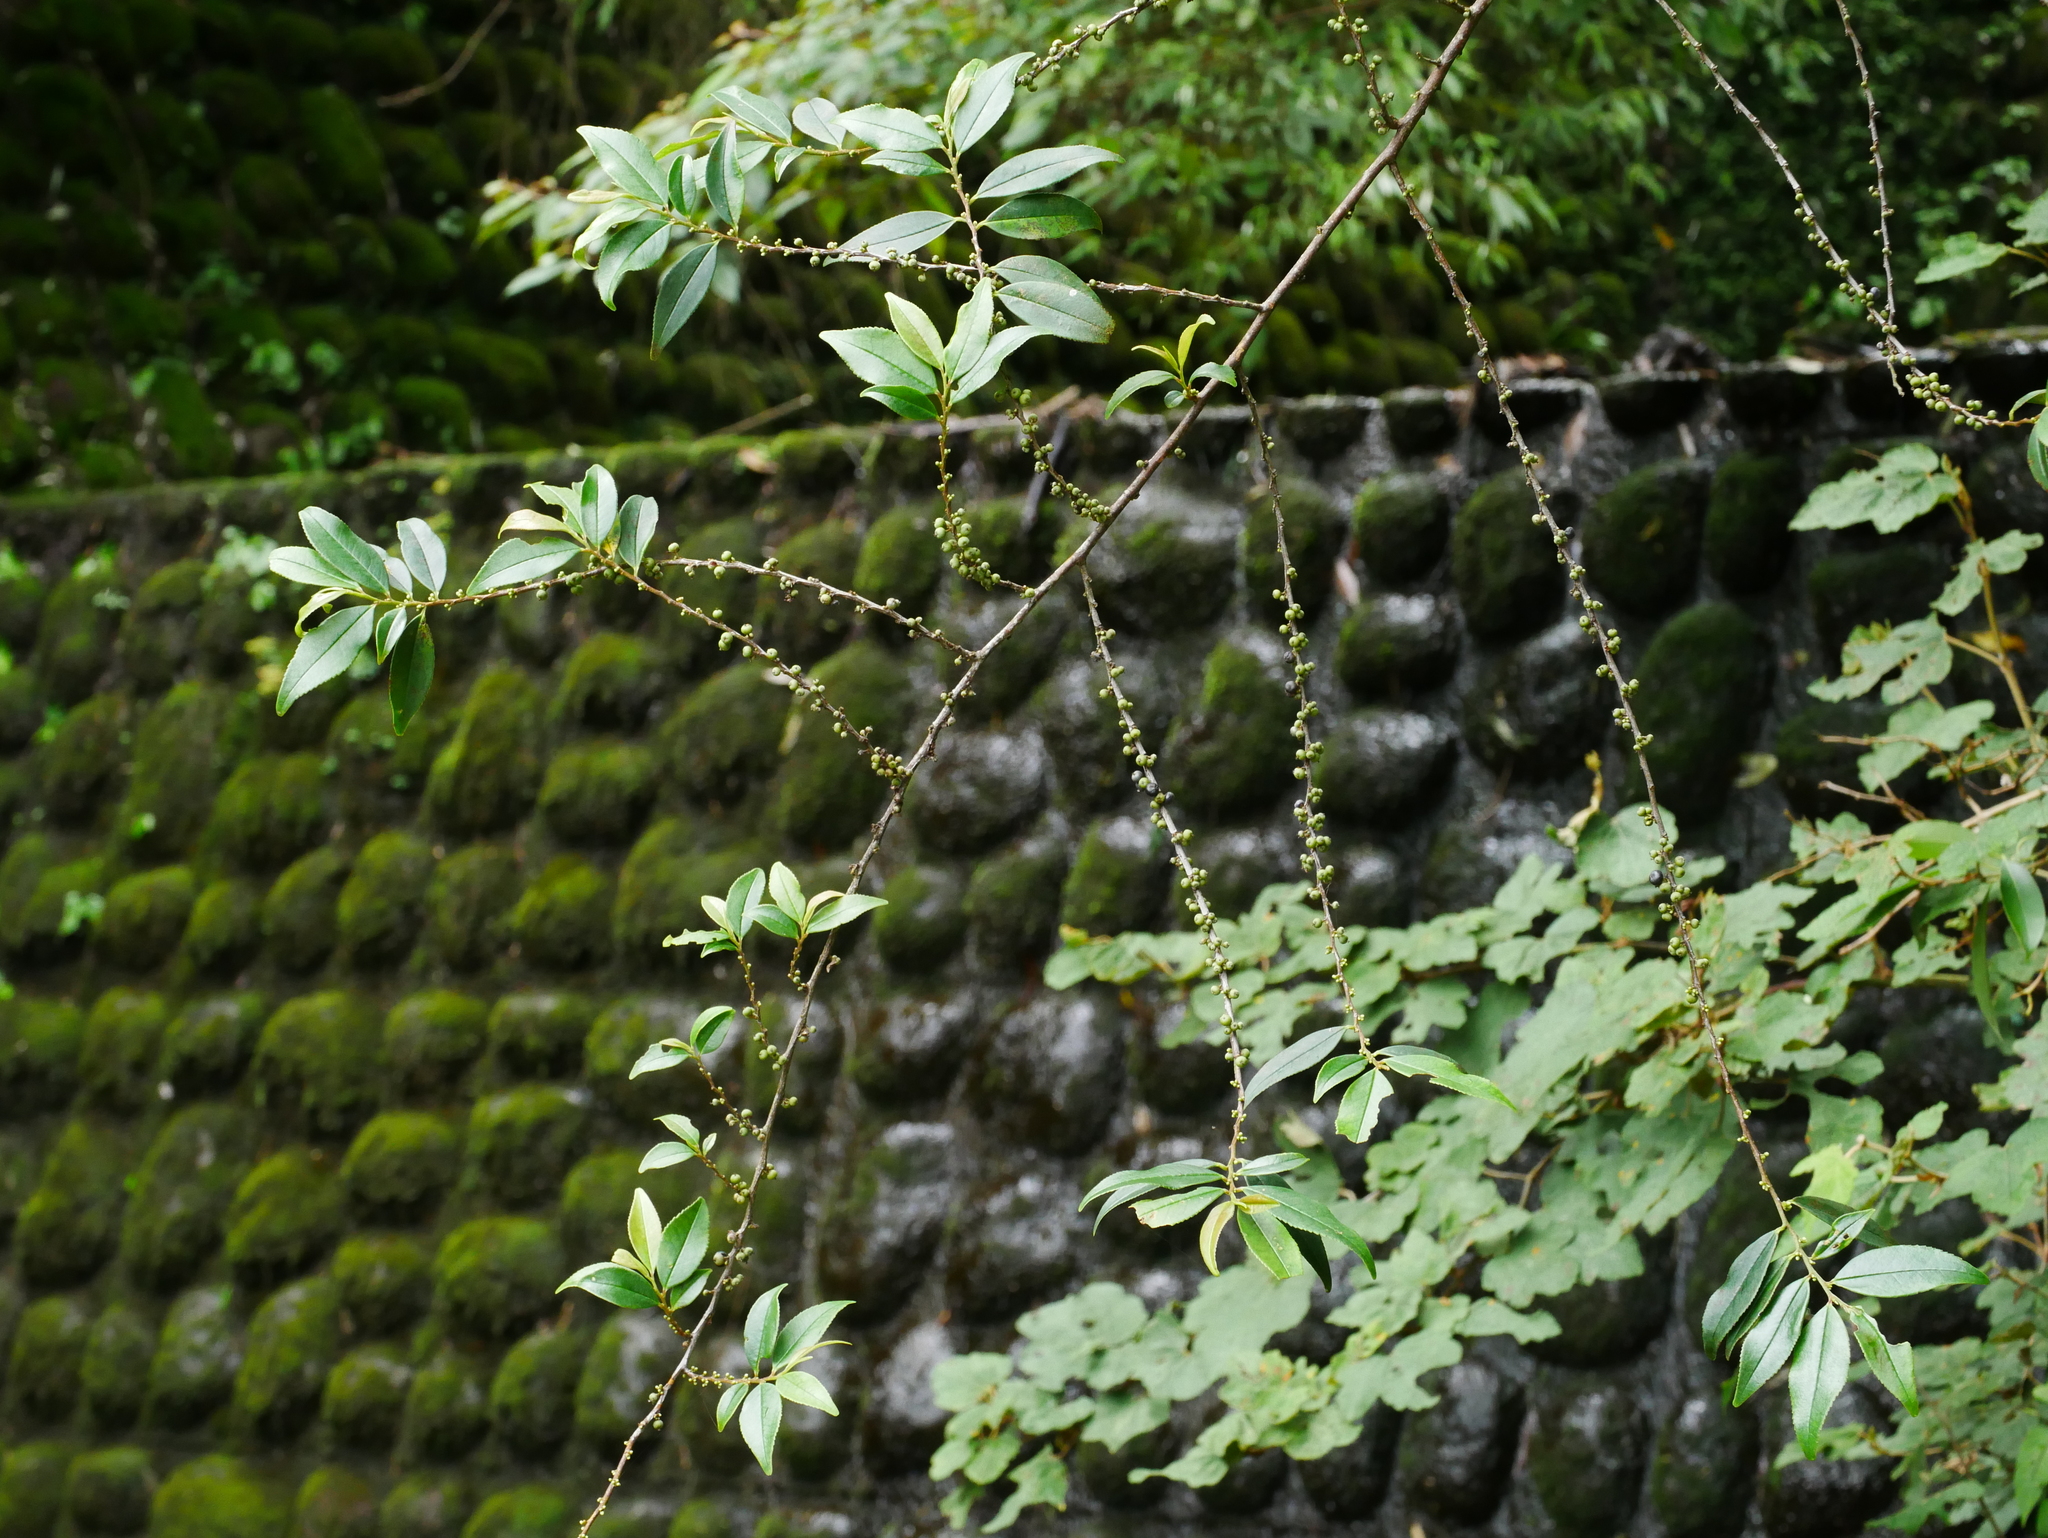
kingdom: Plantae
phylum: Tracheophyta
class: Magnoliopsida
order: Ericales
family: Pentaphylacaceae
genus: Eurya
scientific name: Eurya gnaphalocarpa
